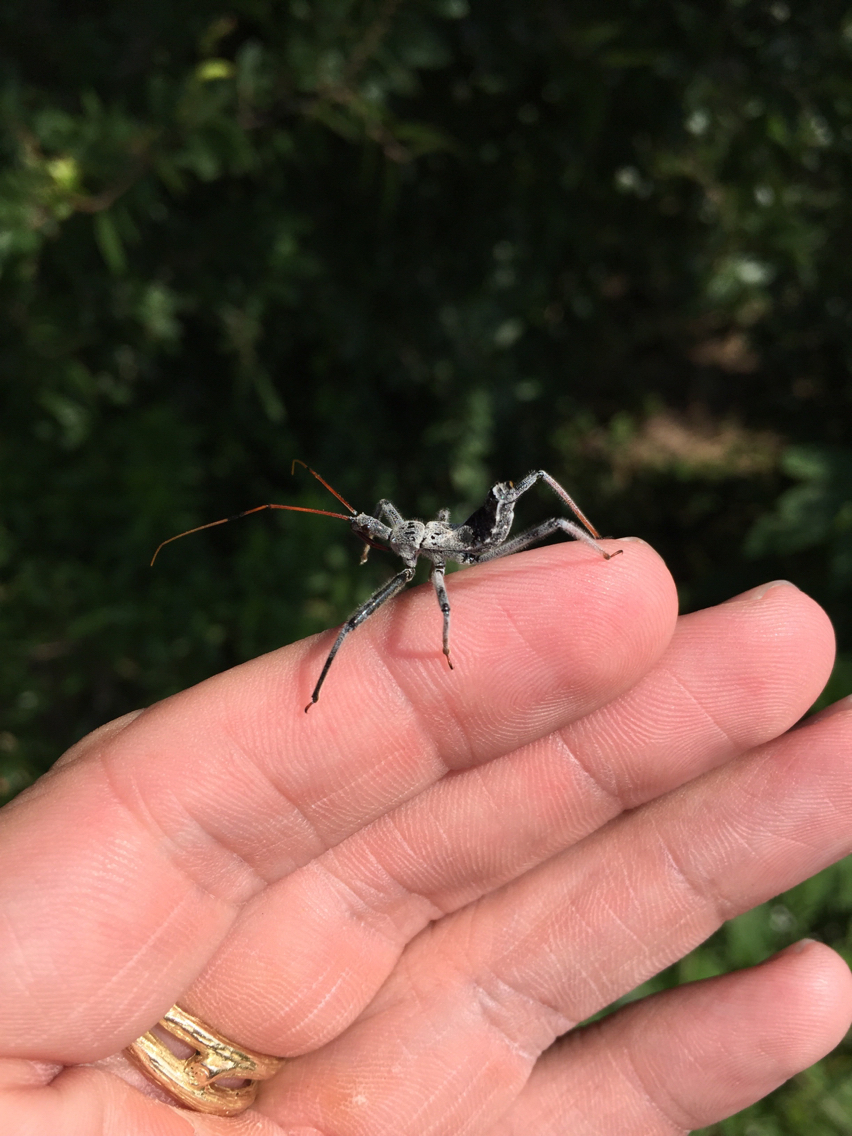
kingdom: Animalia
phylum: Arthropoda
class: Insecta
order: Hemiptera
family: Reduviidae
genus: Arilus
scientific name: Arilus cristatus
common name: North american wheel bug
